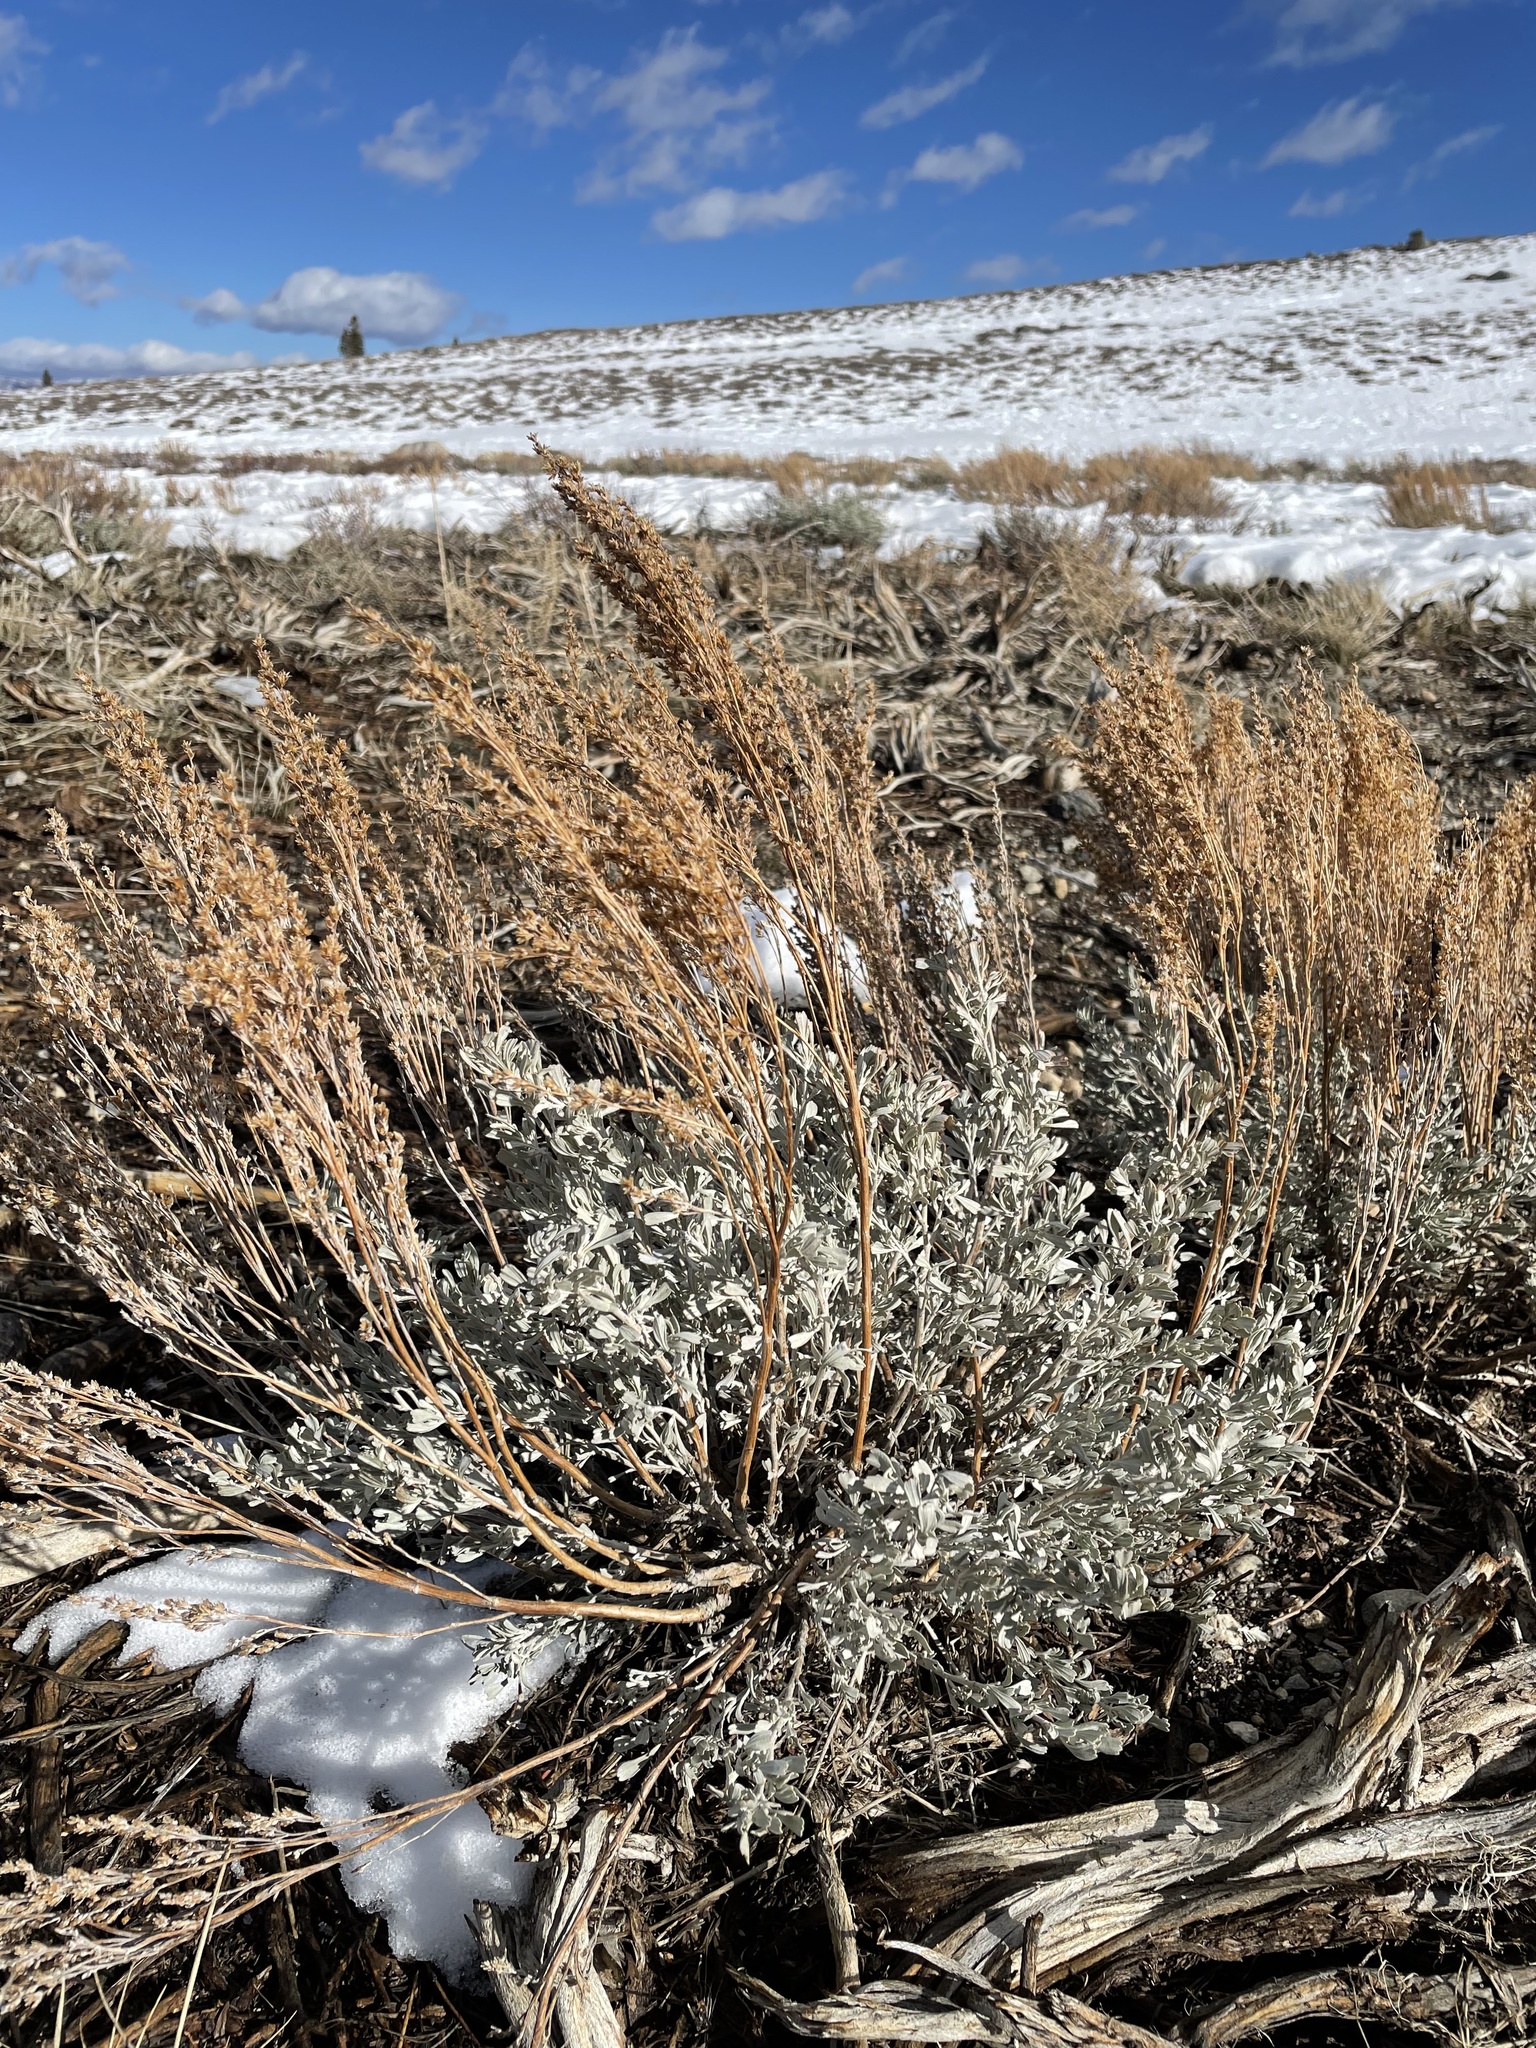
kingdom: Plantae
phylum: Tracheophyta
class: Magnoliopsida
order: Asterales
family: Asteraceae
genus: Artemisia
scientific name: Artemisia tridentata
